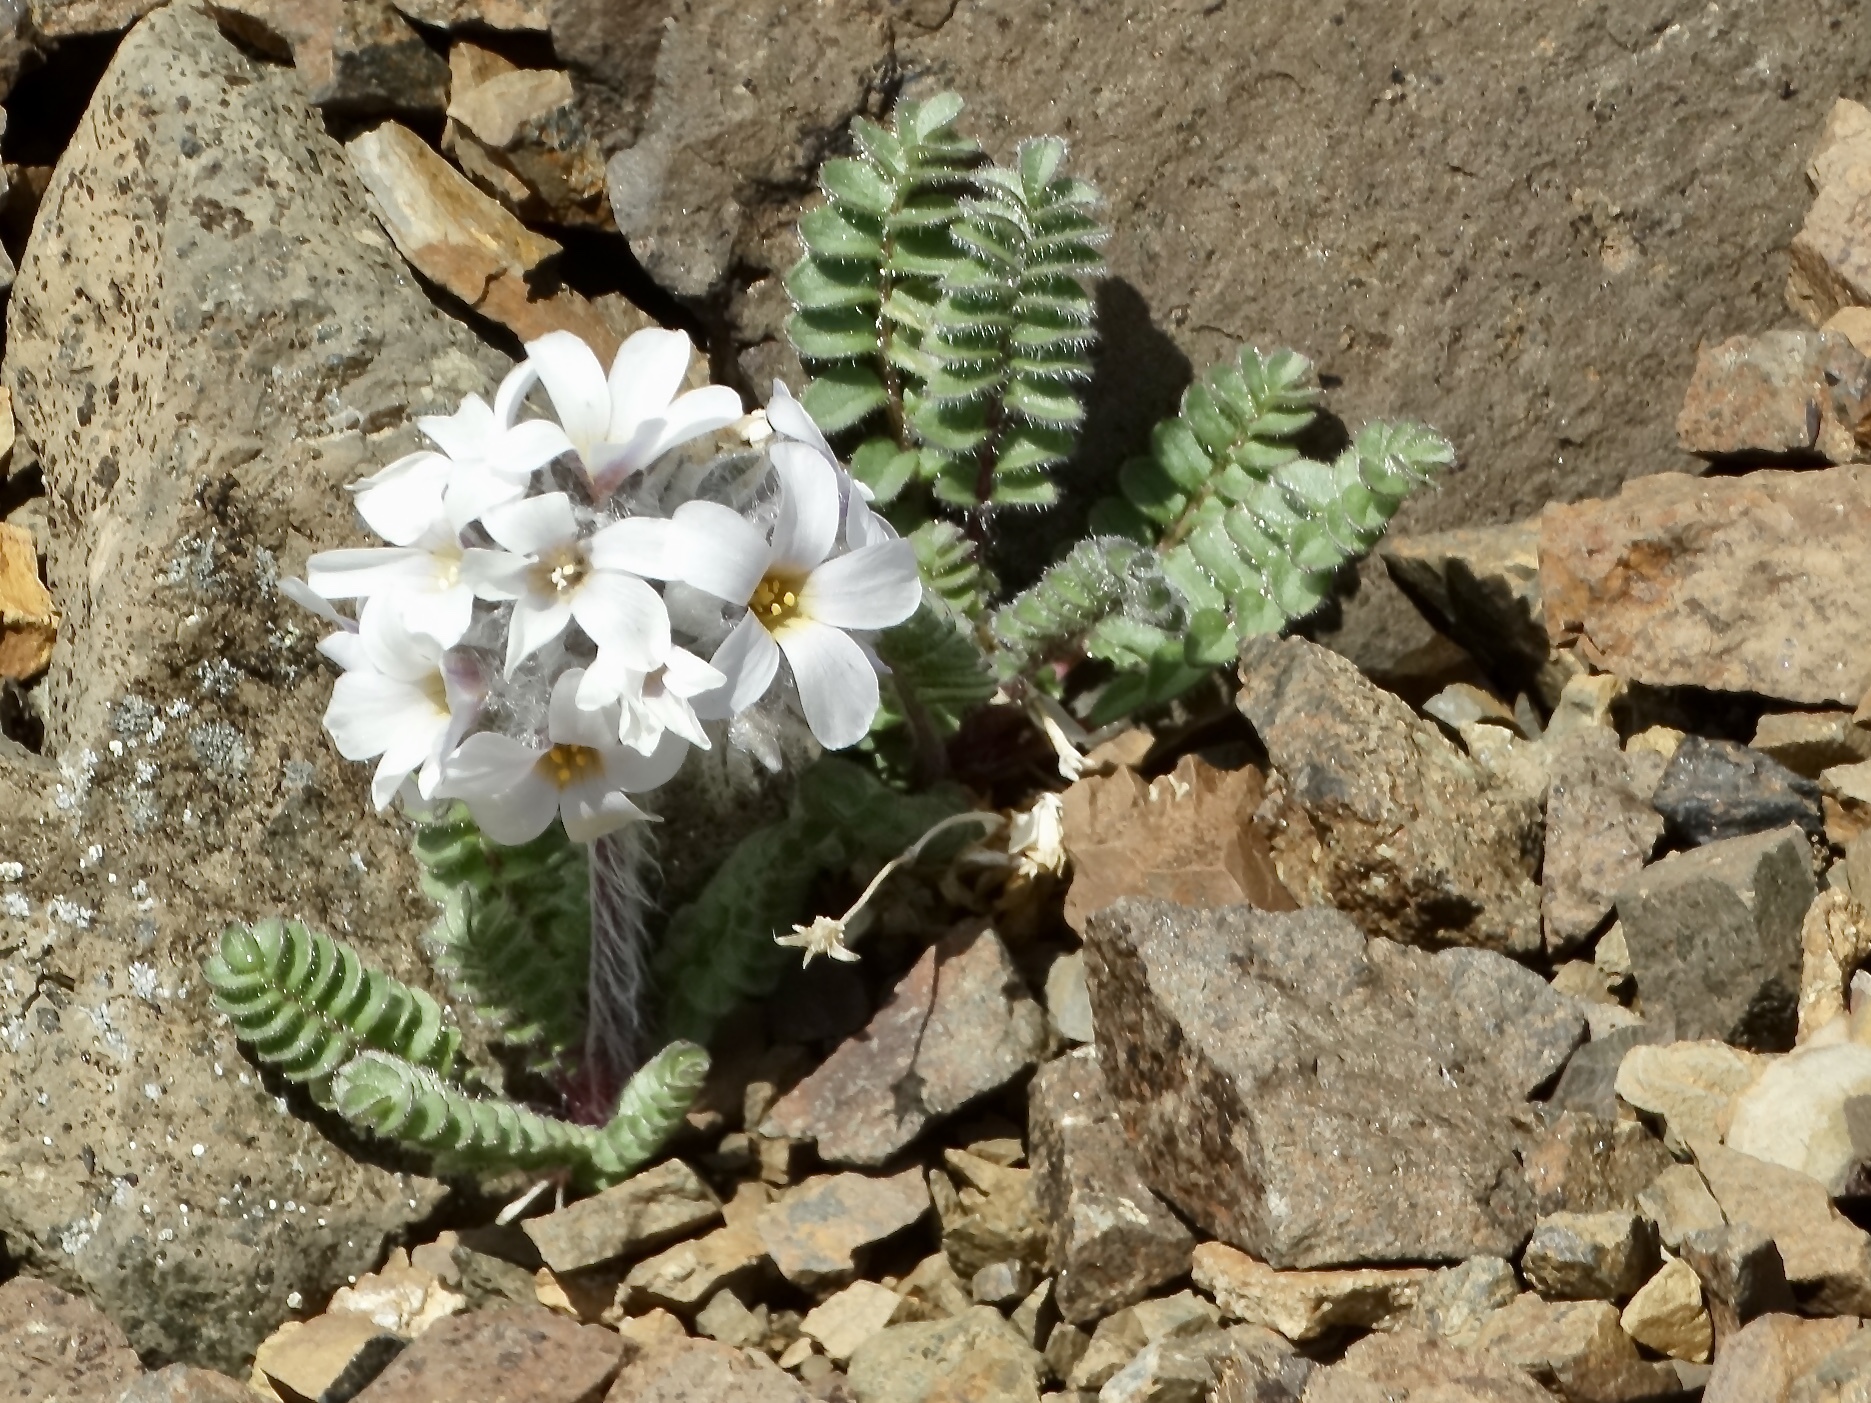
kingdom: Plantae
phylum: Tracheophyta
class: Magnoliopsida
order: Ericales
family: Polemoniaceae
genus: Polemonium
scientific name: Polemonium villosissimum
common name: Alaska jacob's-ladder
